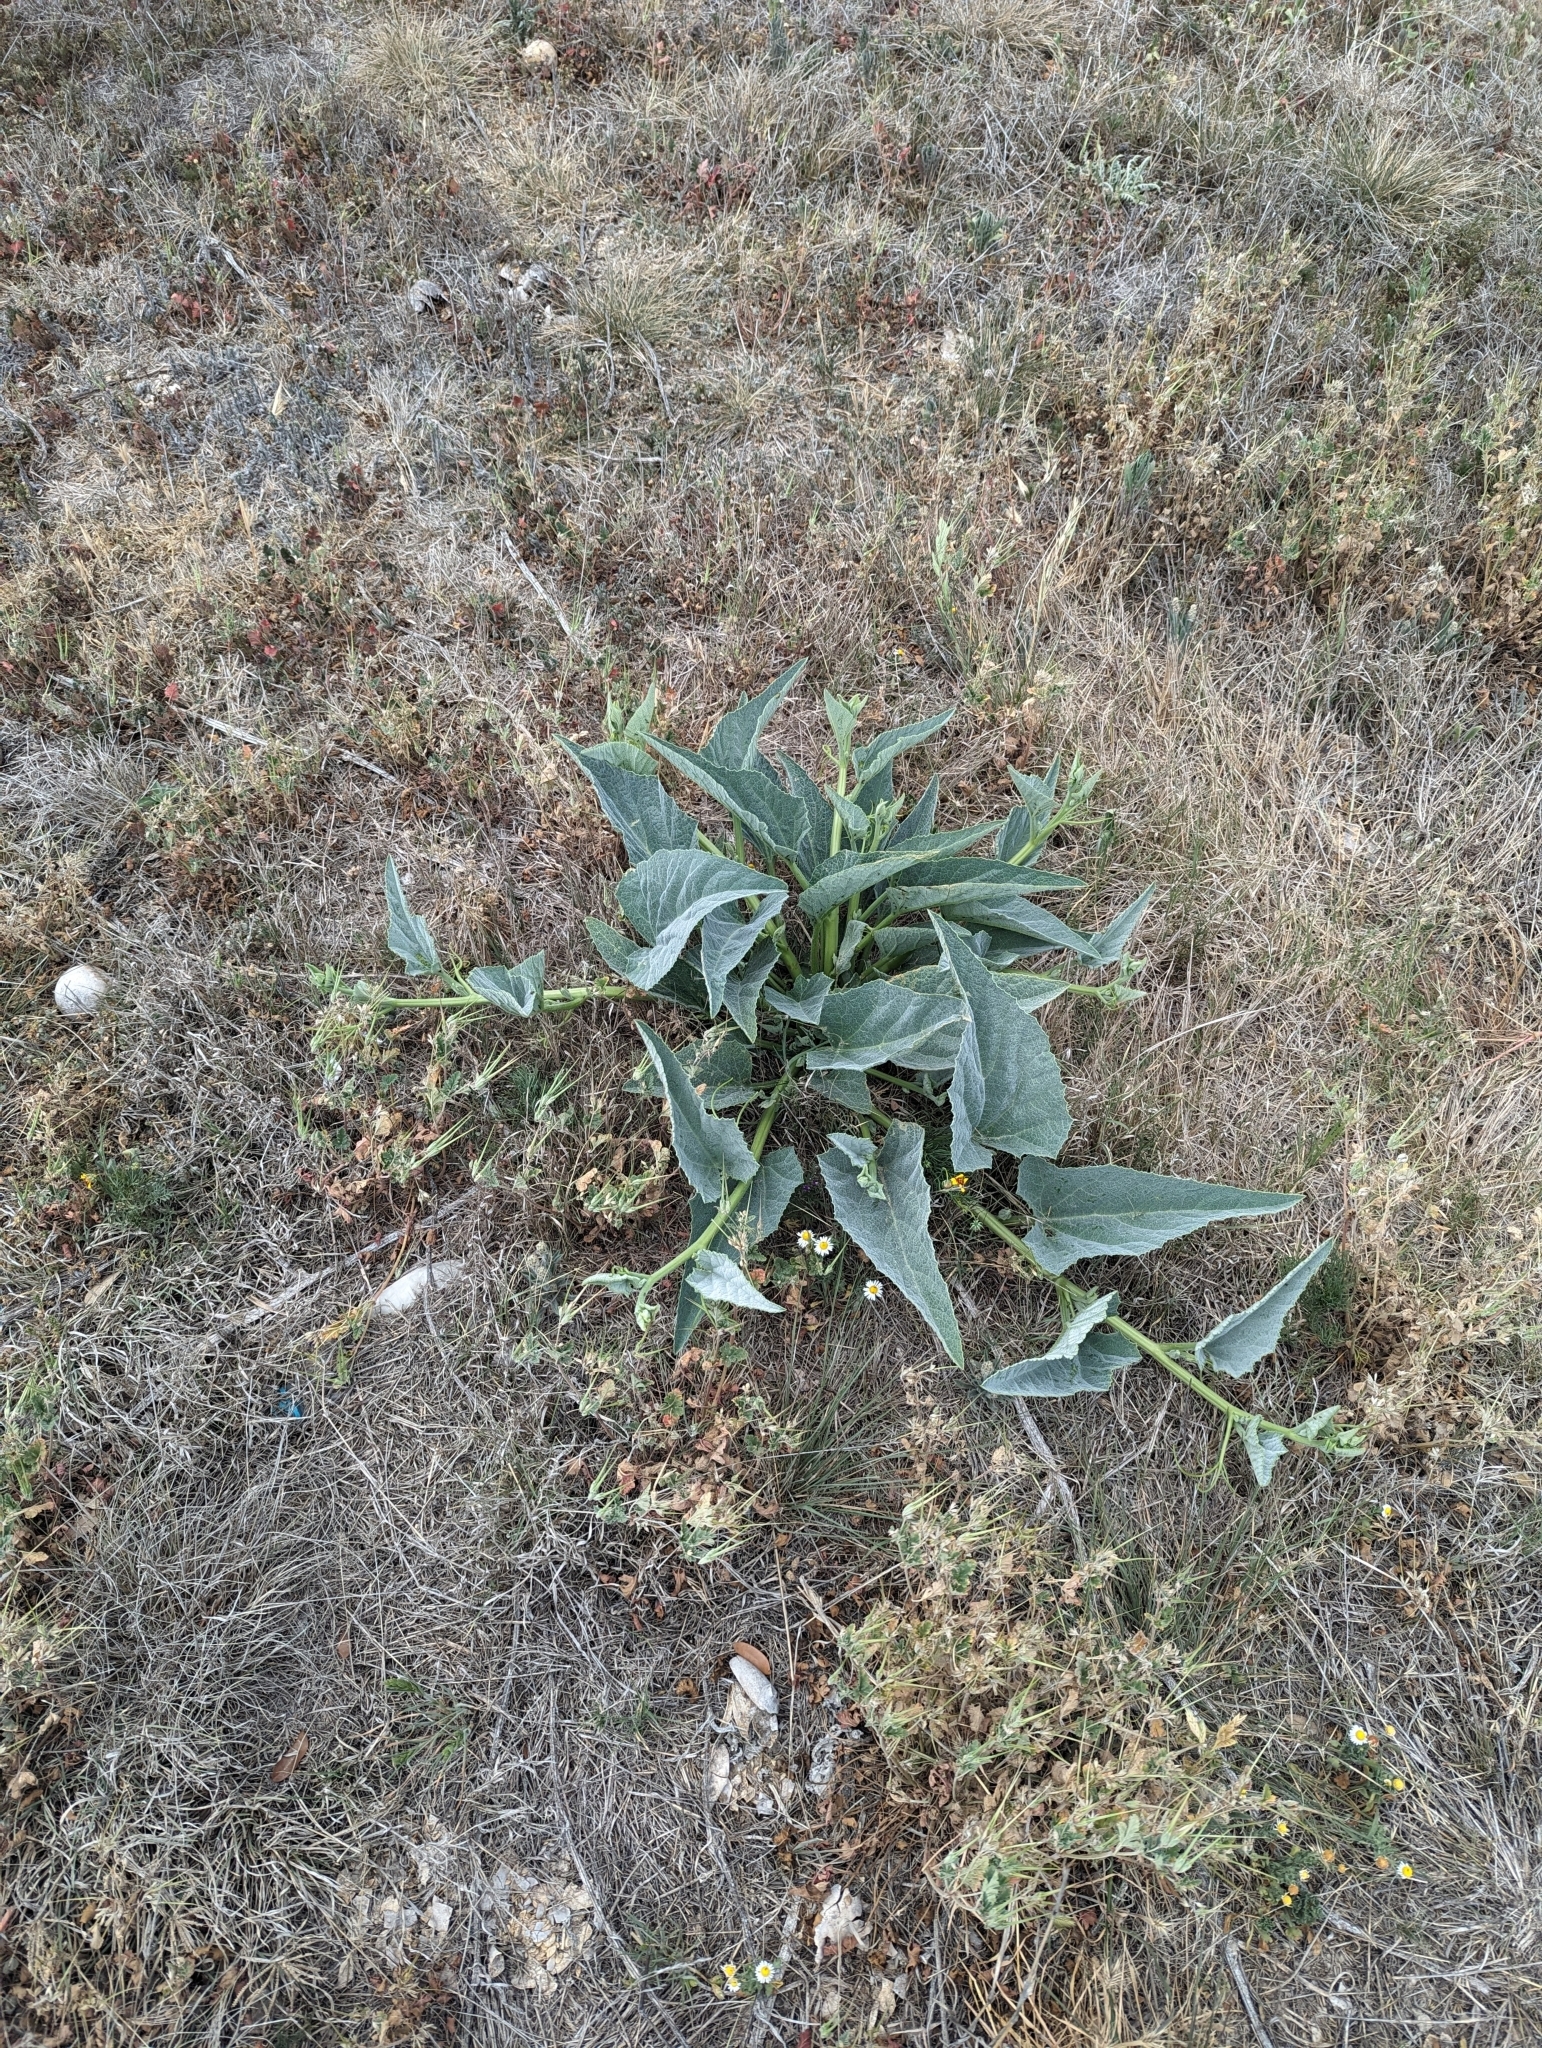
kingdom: Plantae
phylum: Tracheophyta
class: Magnoliopsida
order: Cucurbitales
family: Cucurbitaceae
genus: Cucurbita
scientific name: Cucurbita foetidissima
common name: Buffalo gourd
